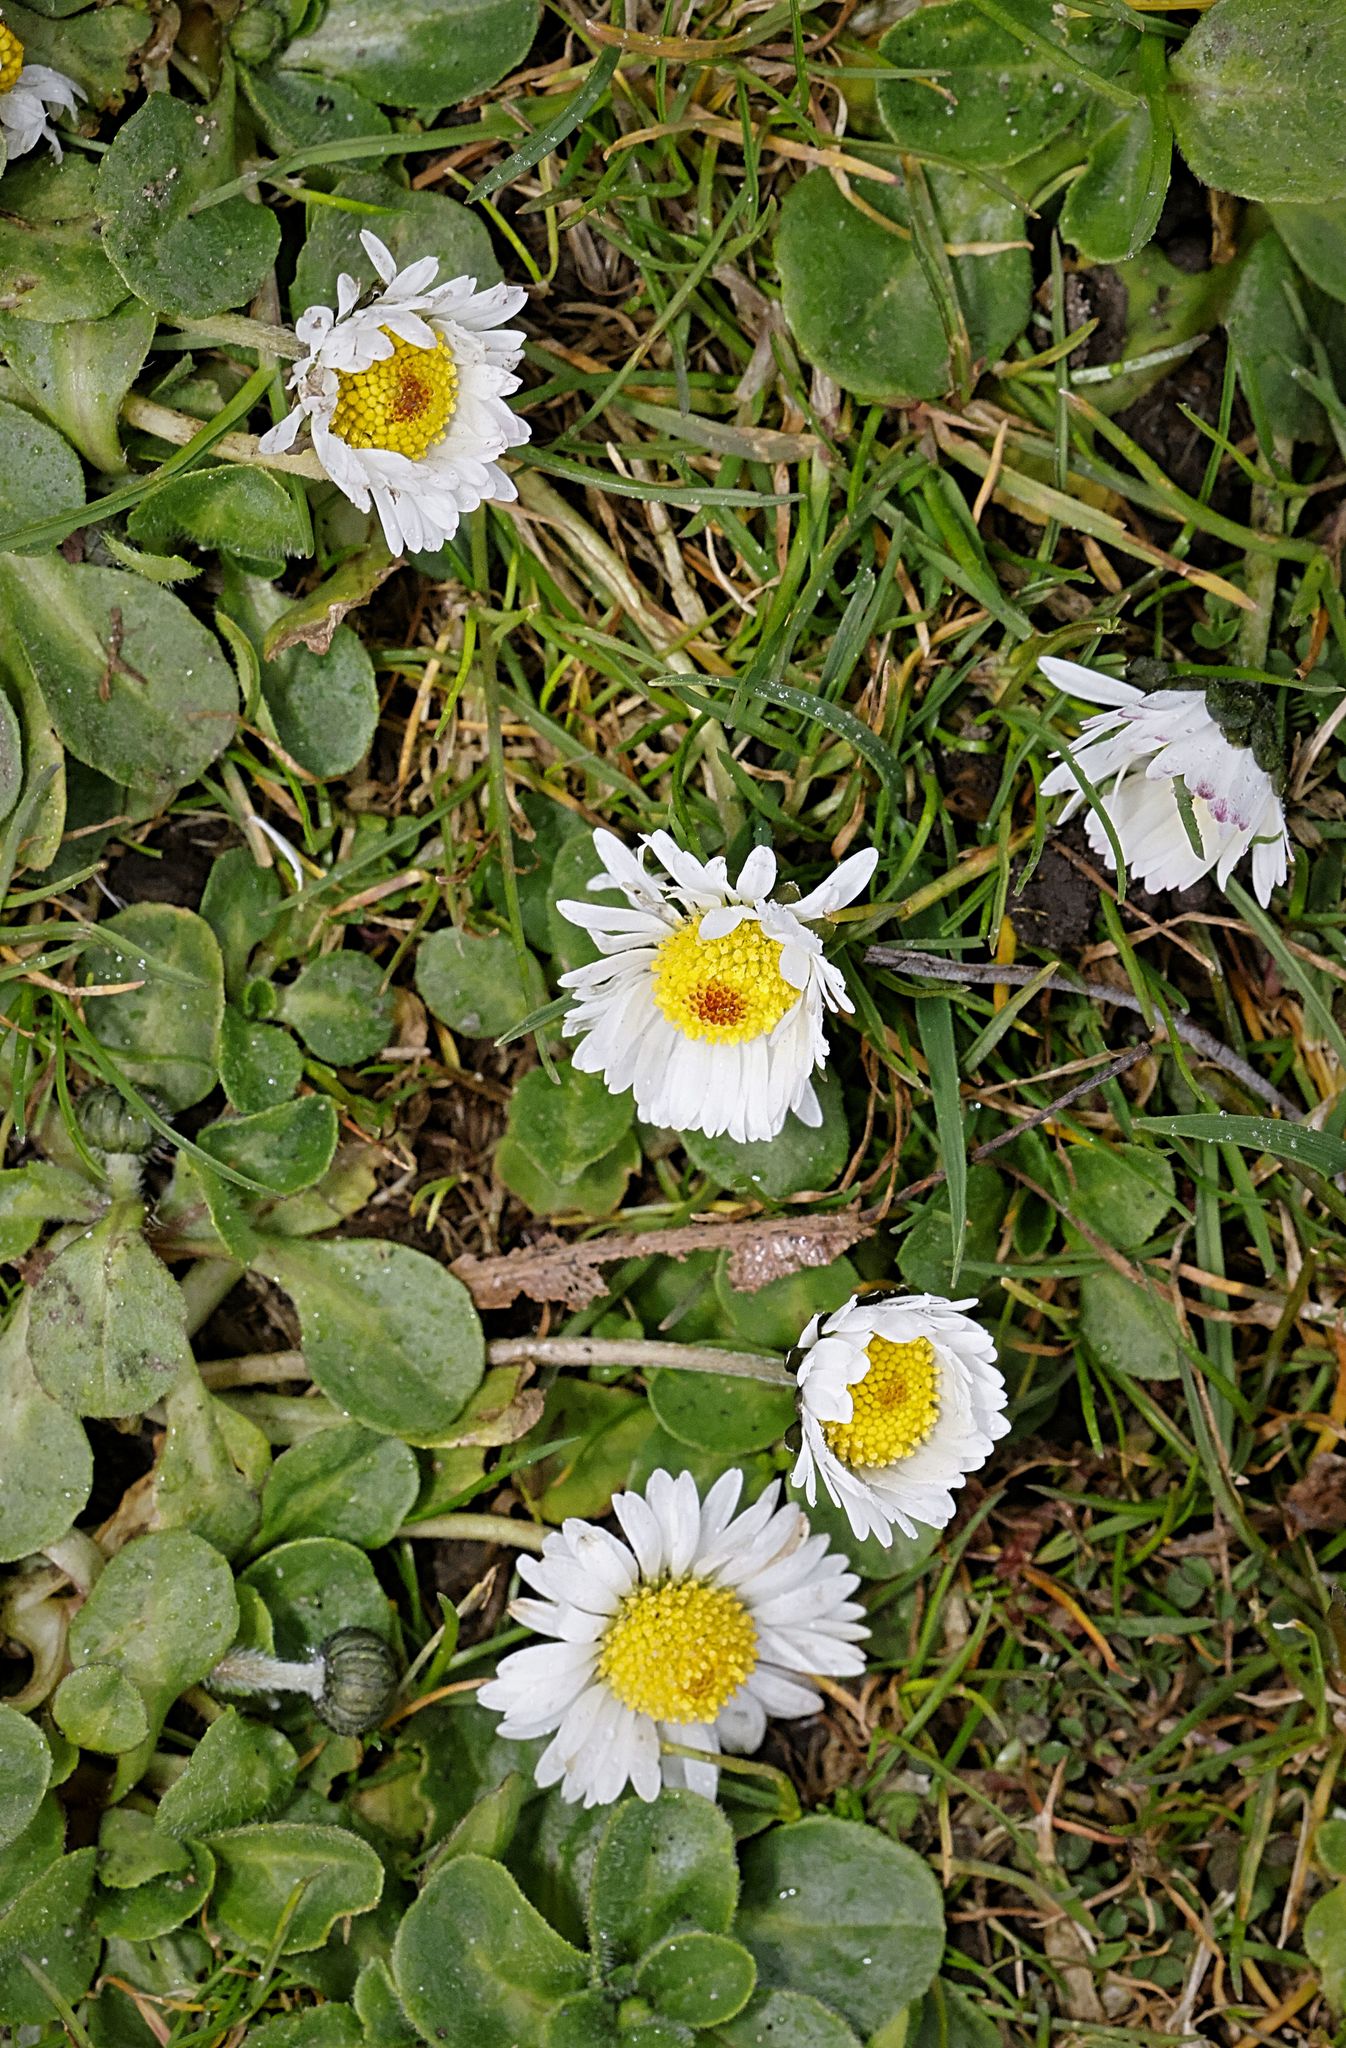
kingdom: Plantae
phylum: Tracheophyta
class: Magnoliopsida
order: Asterales
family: Asteraceae
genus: Bellis
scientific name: Bellis perennis
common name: Lawndaisy
